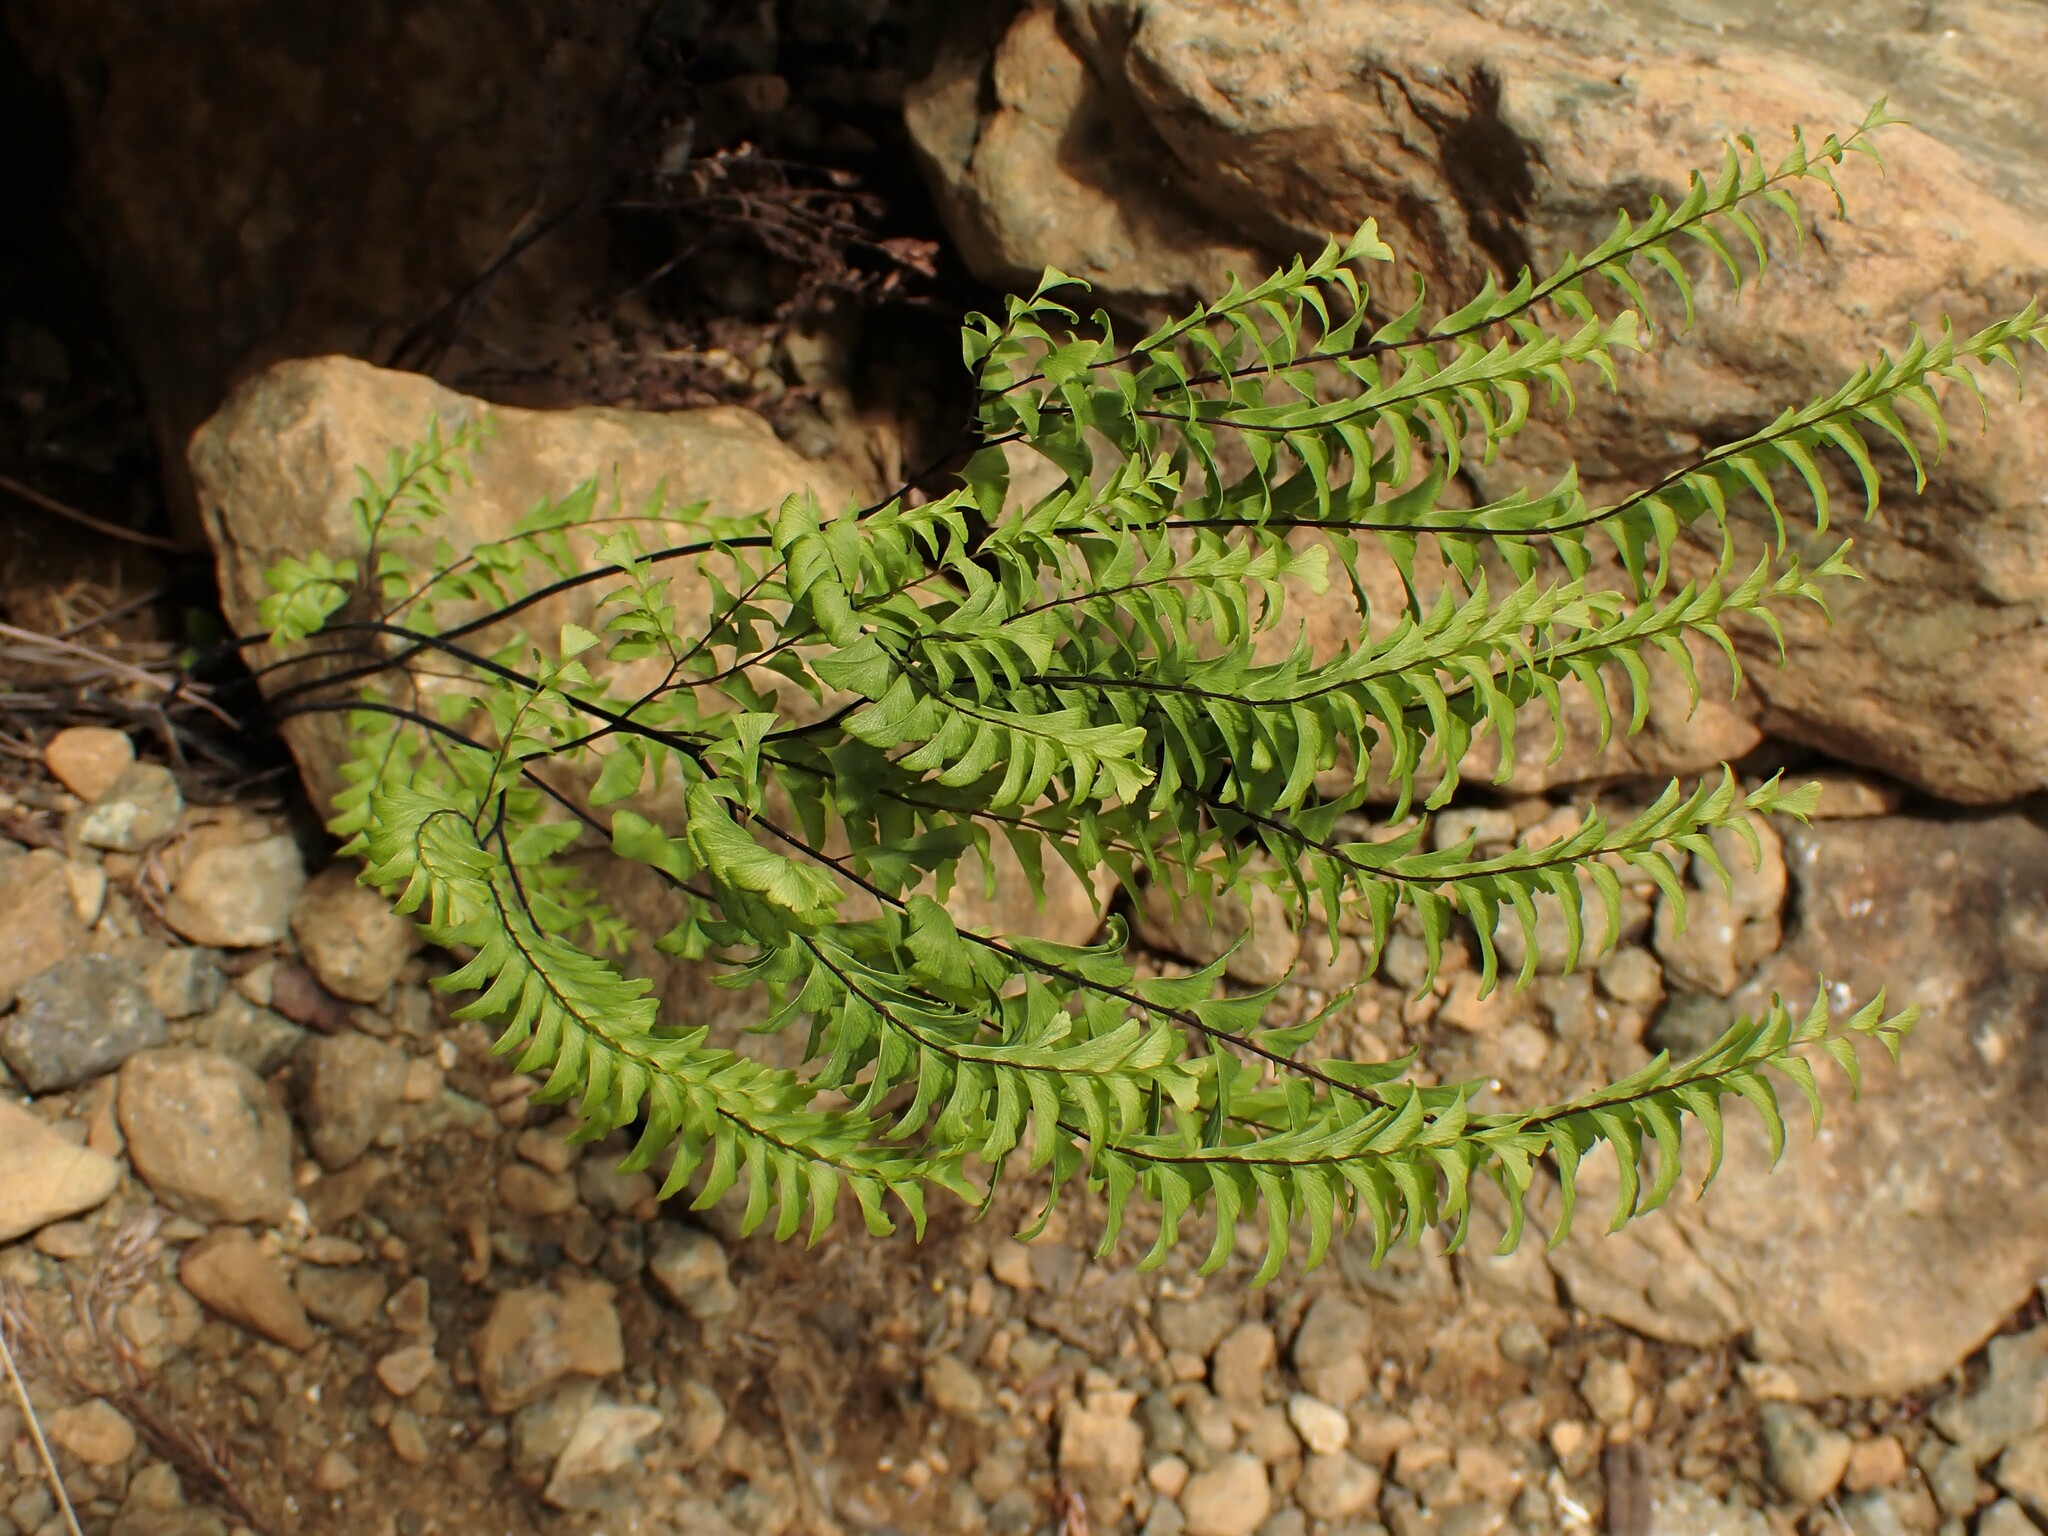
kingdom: Plantae
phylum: Tracheophyta
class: Polypodiopsida
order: Polypodiales
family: Pteridaceae
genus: Adiantum
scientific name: Adiantum aleuticum
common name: Aleutian maidenhair fern
